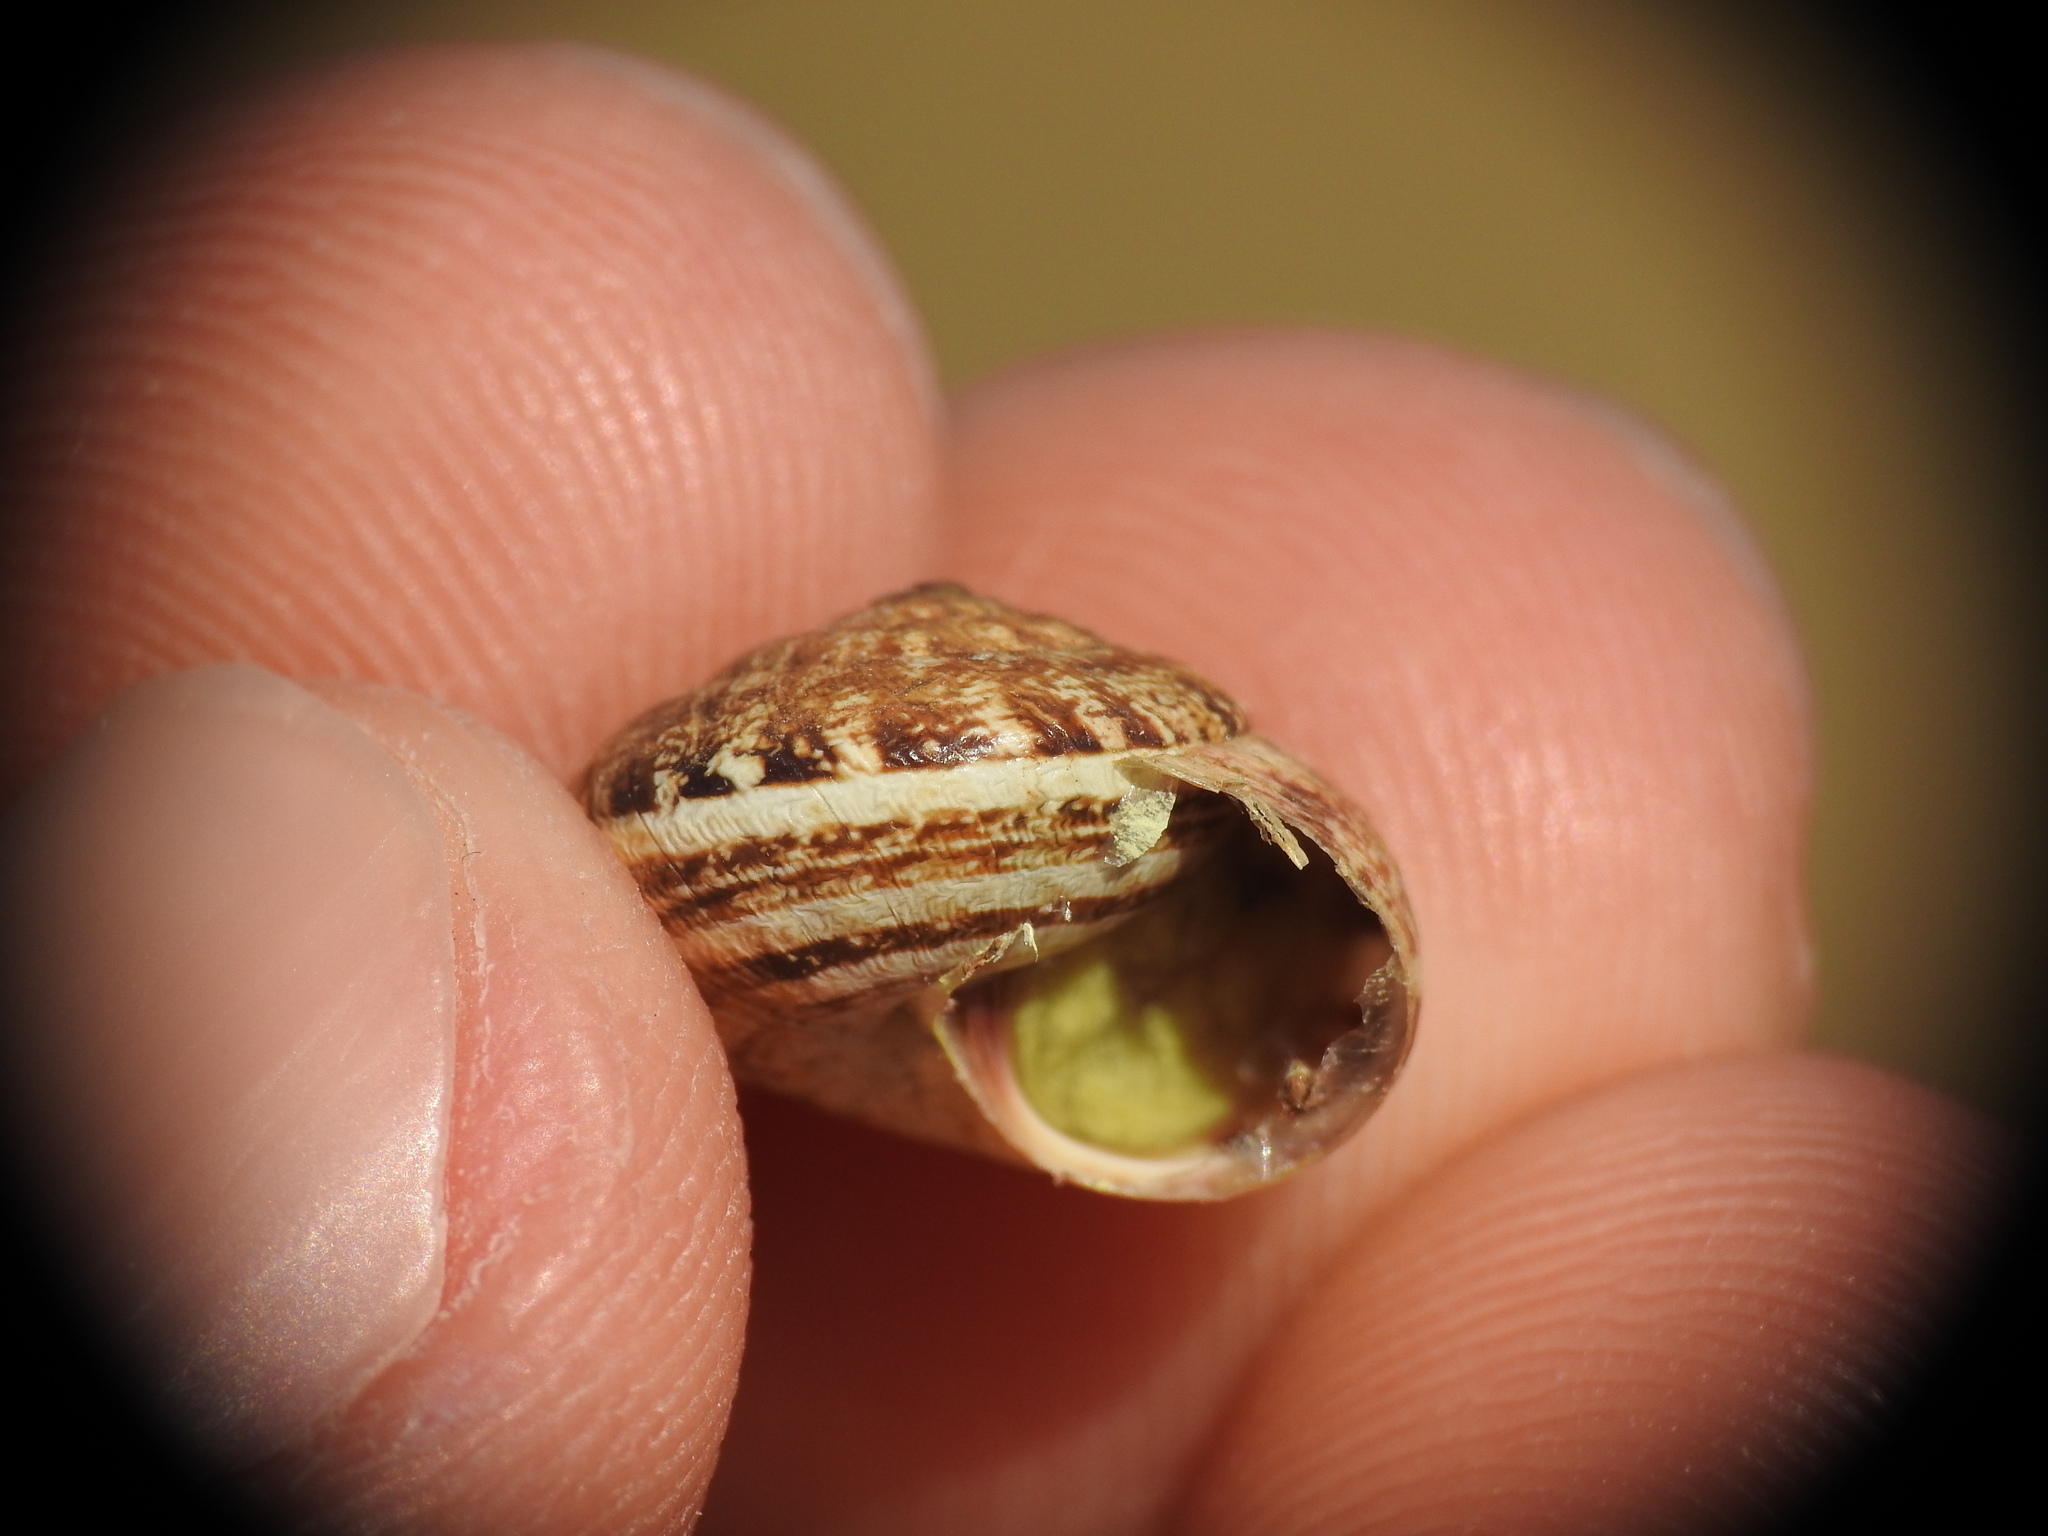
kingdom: Animalia
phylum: Mollusca
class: Gastropoda
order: Stylommatophora
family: Geomitridae
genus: Xerocrassa
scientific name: Xerocrassa mesostena
